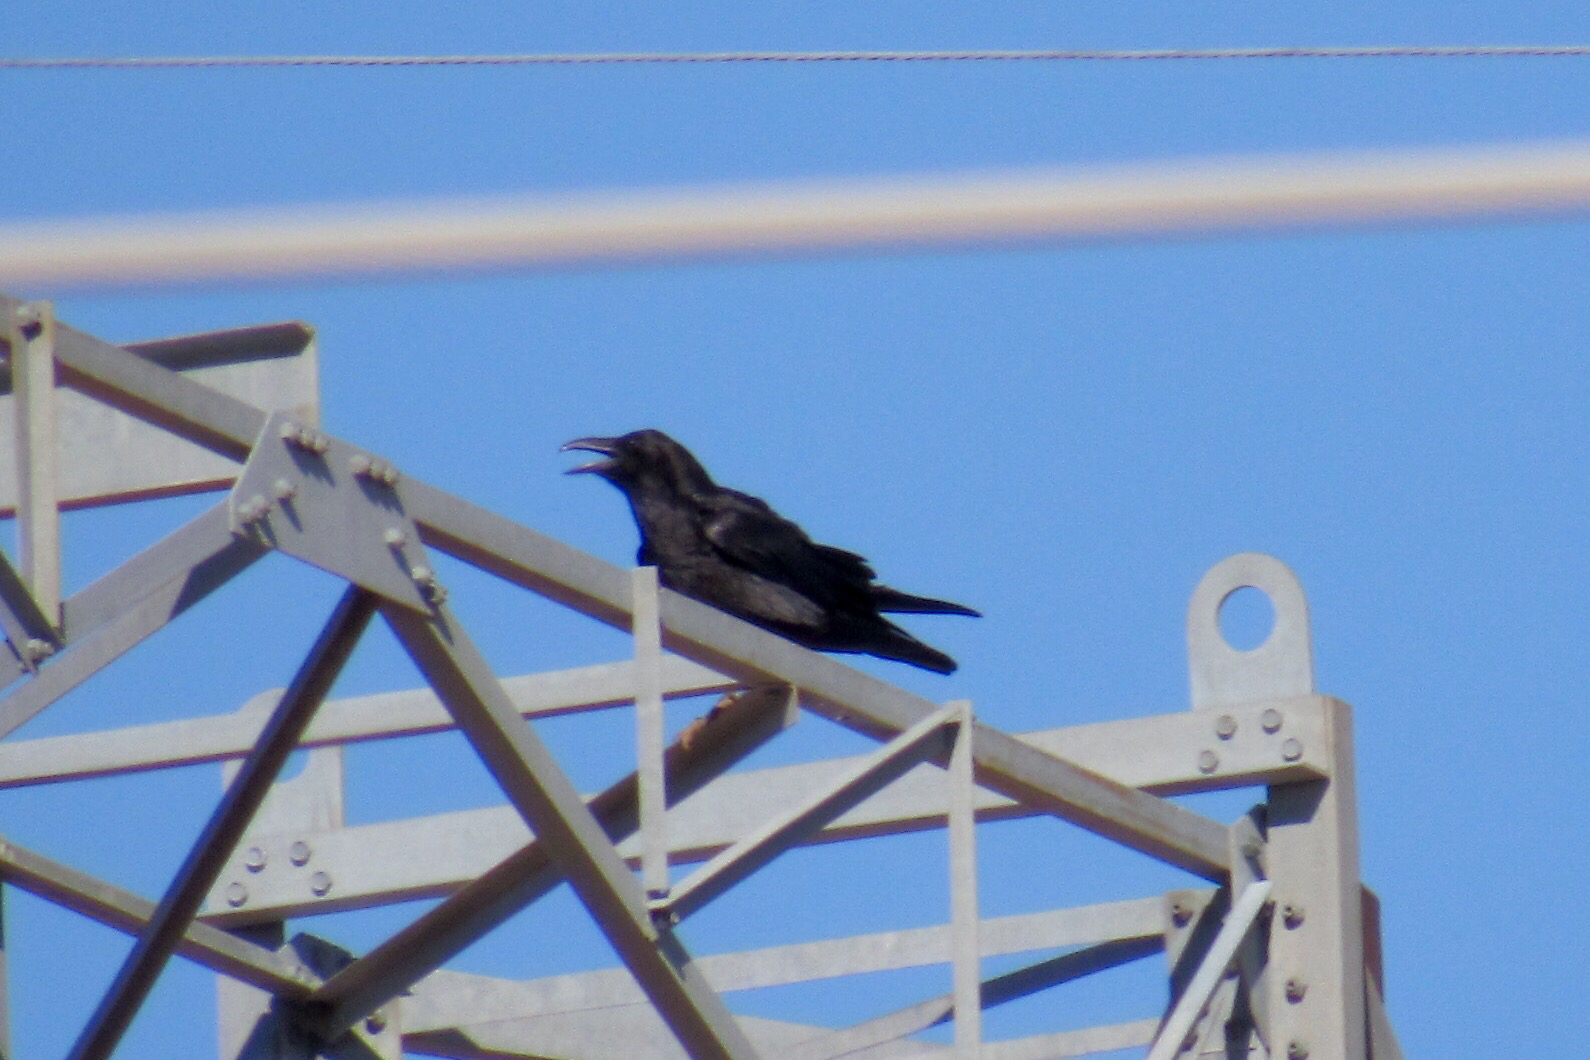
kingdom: Animalia
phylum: Chordata
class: Aves
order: Passeriformes
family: Corvidae
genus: Corvus
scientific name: Corvus corax
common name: Common raven
